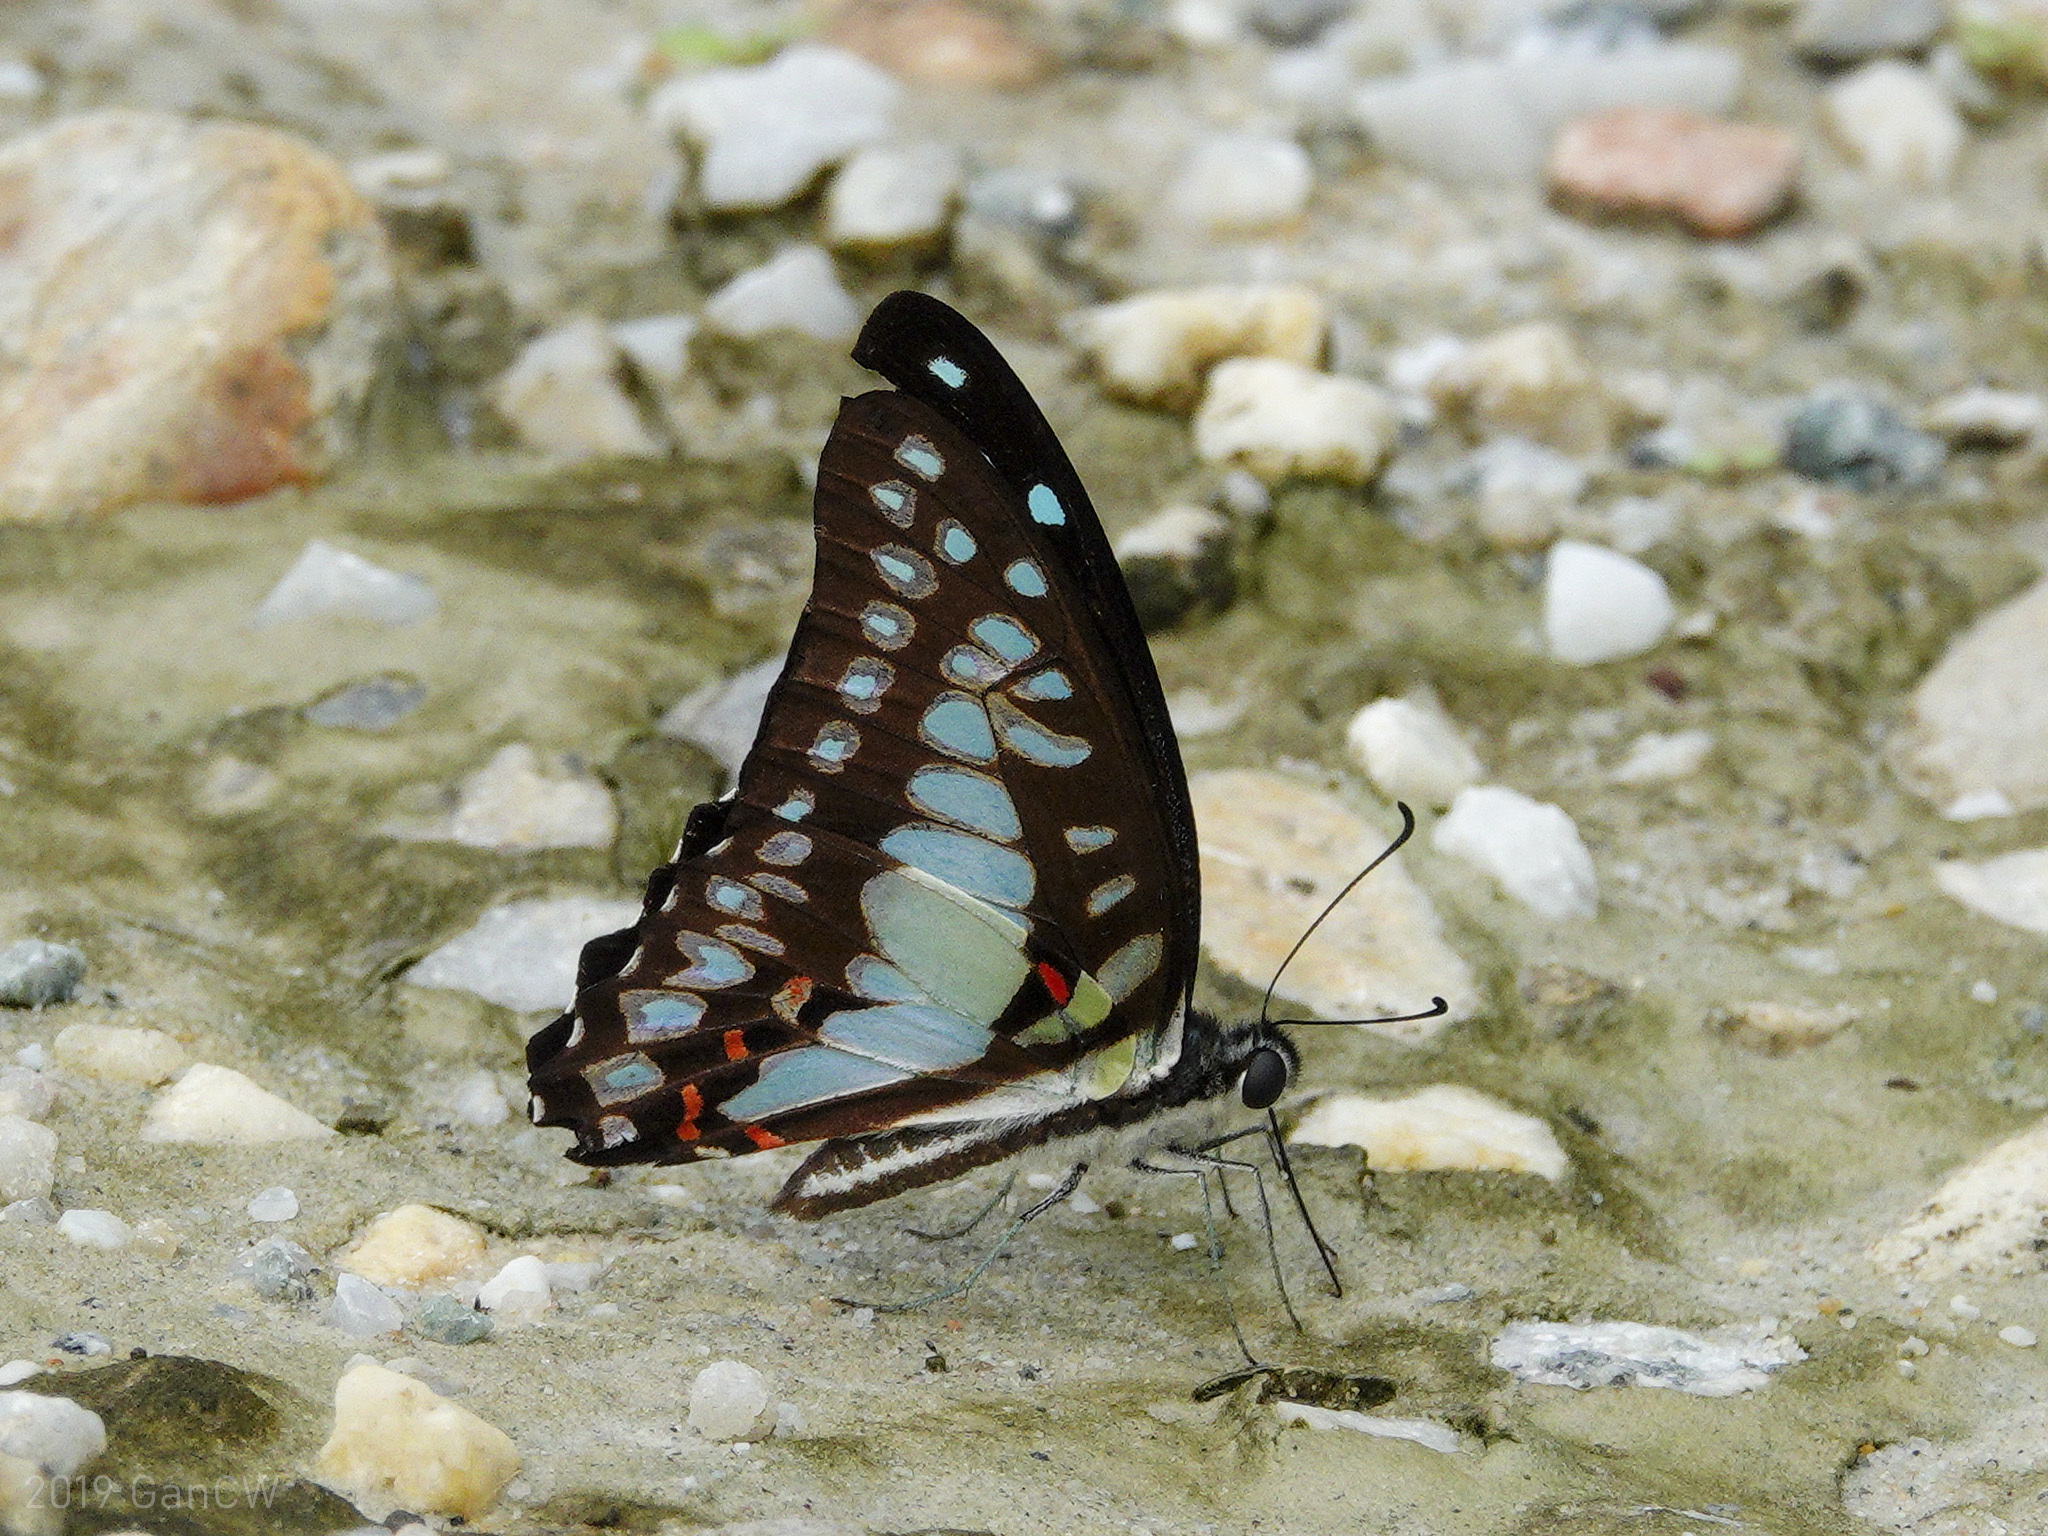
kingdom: Animalia
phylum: Arthropoda
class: Insecta
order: Lepidoptera
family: Papilionidae
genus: Graphium
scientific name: Graphium eurypylus
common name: Great jay
